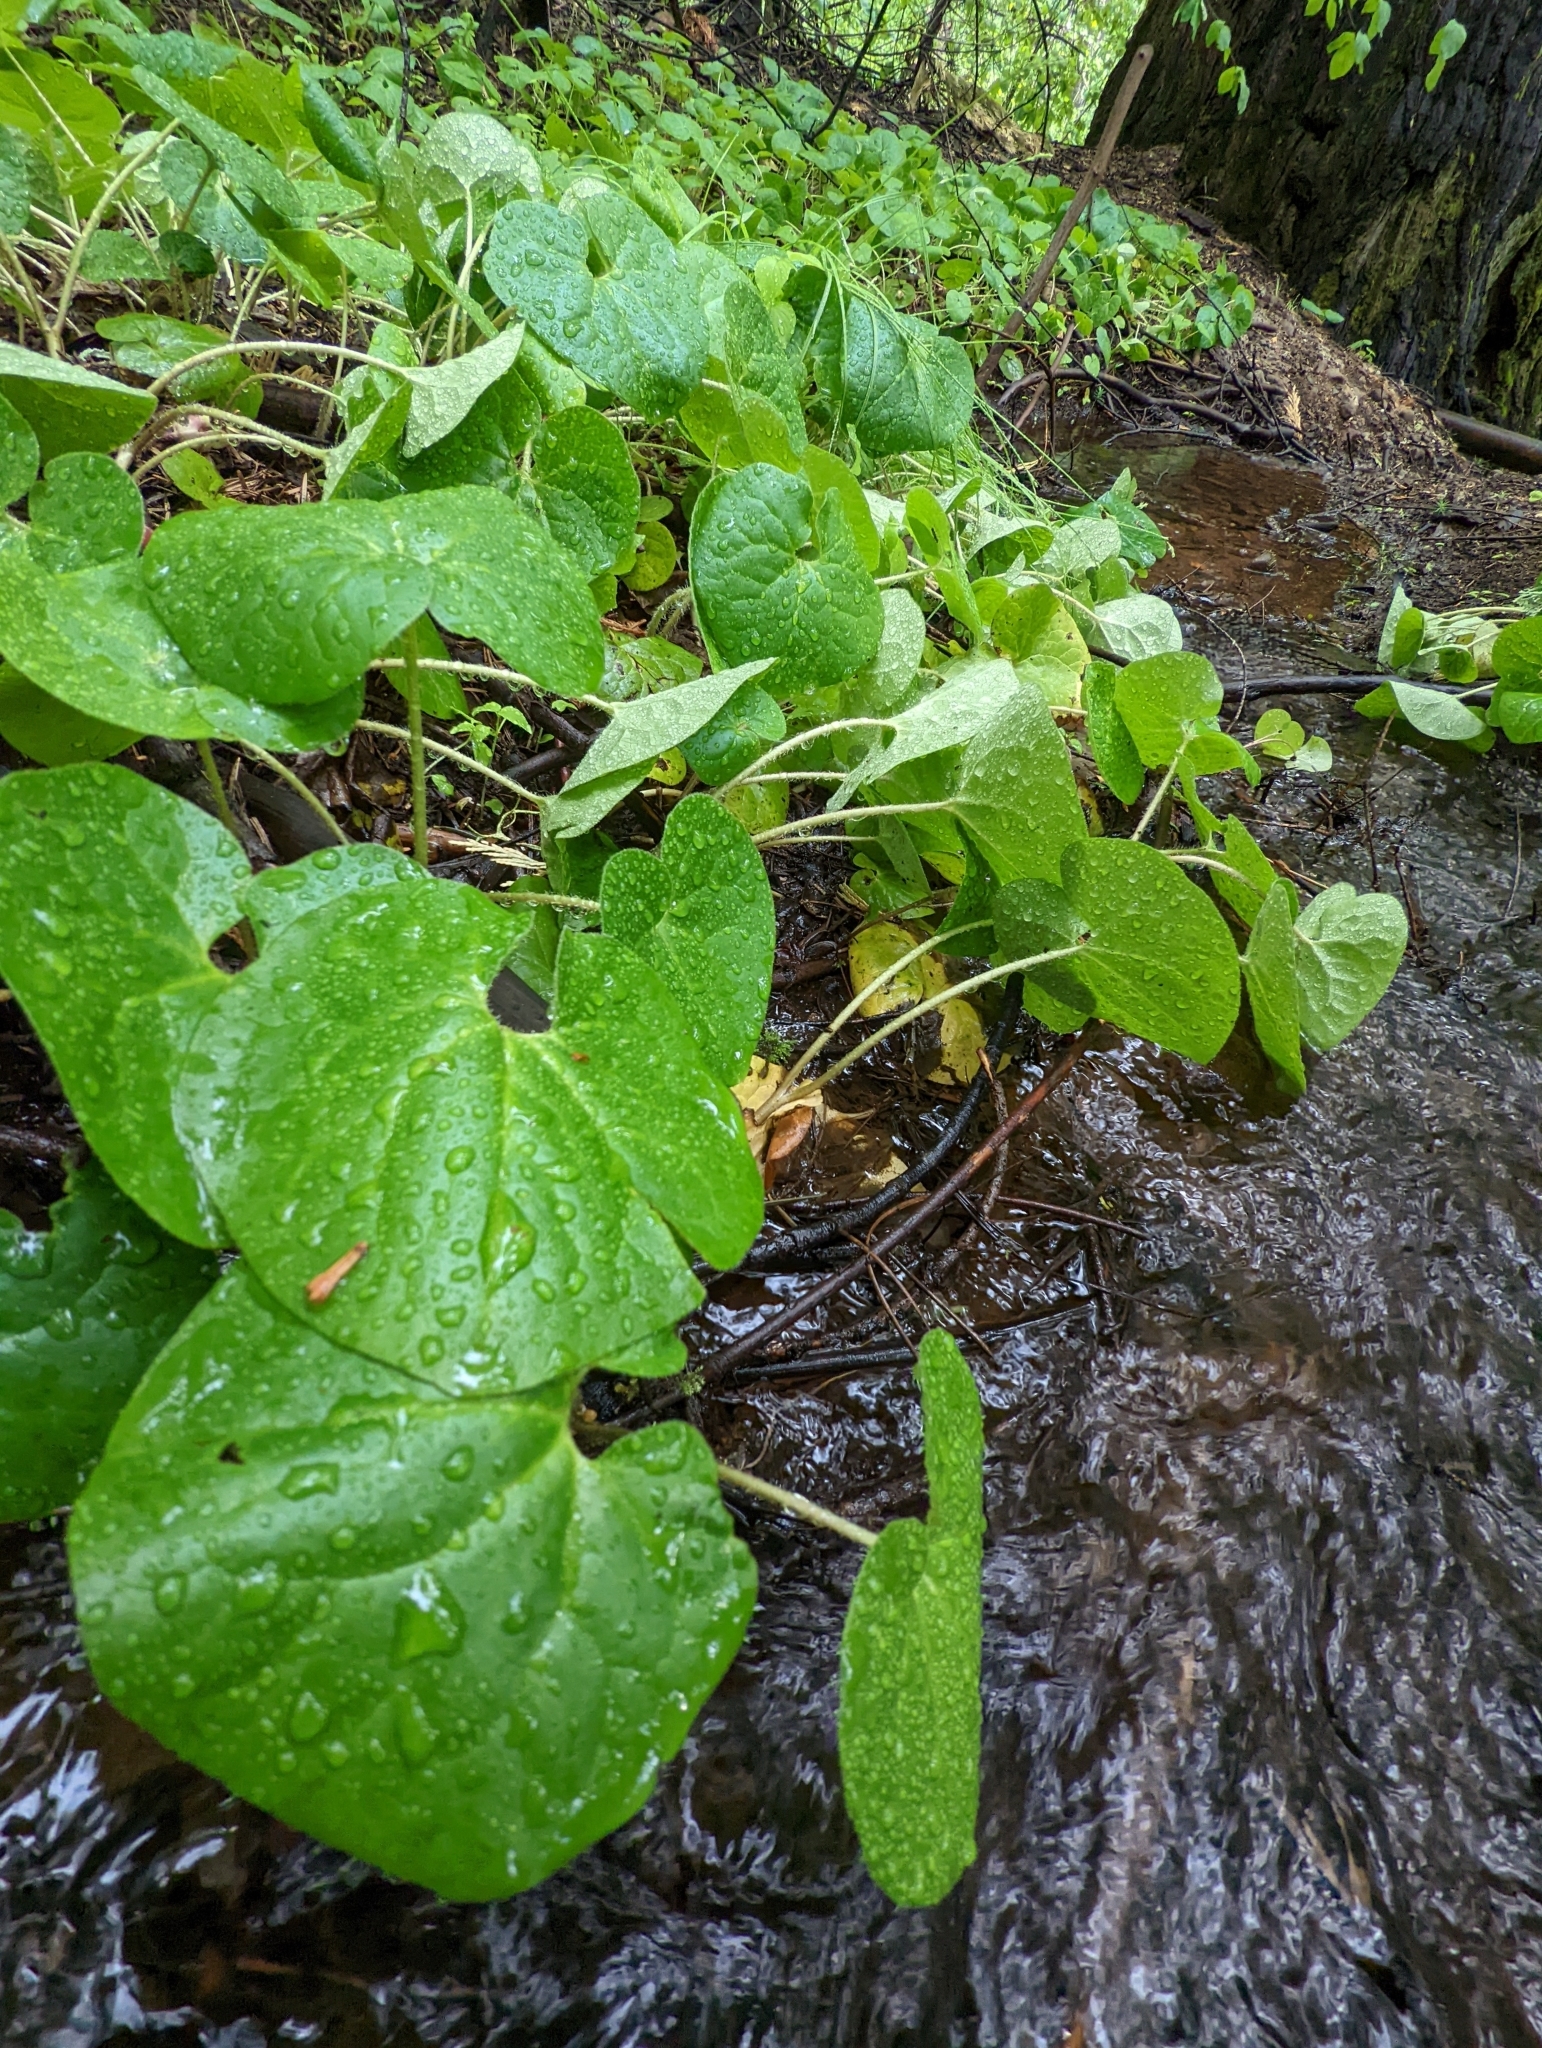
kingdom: Plantae
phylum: Tracheophyta
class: Magnoliopsida
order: Piperales
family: Aristolochiaceae
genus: Asarum
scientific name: Asarum lemmonii
